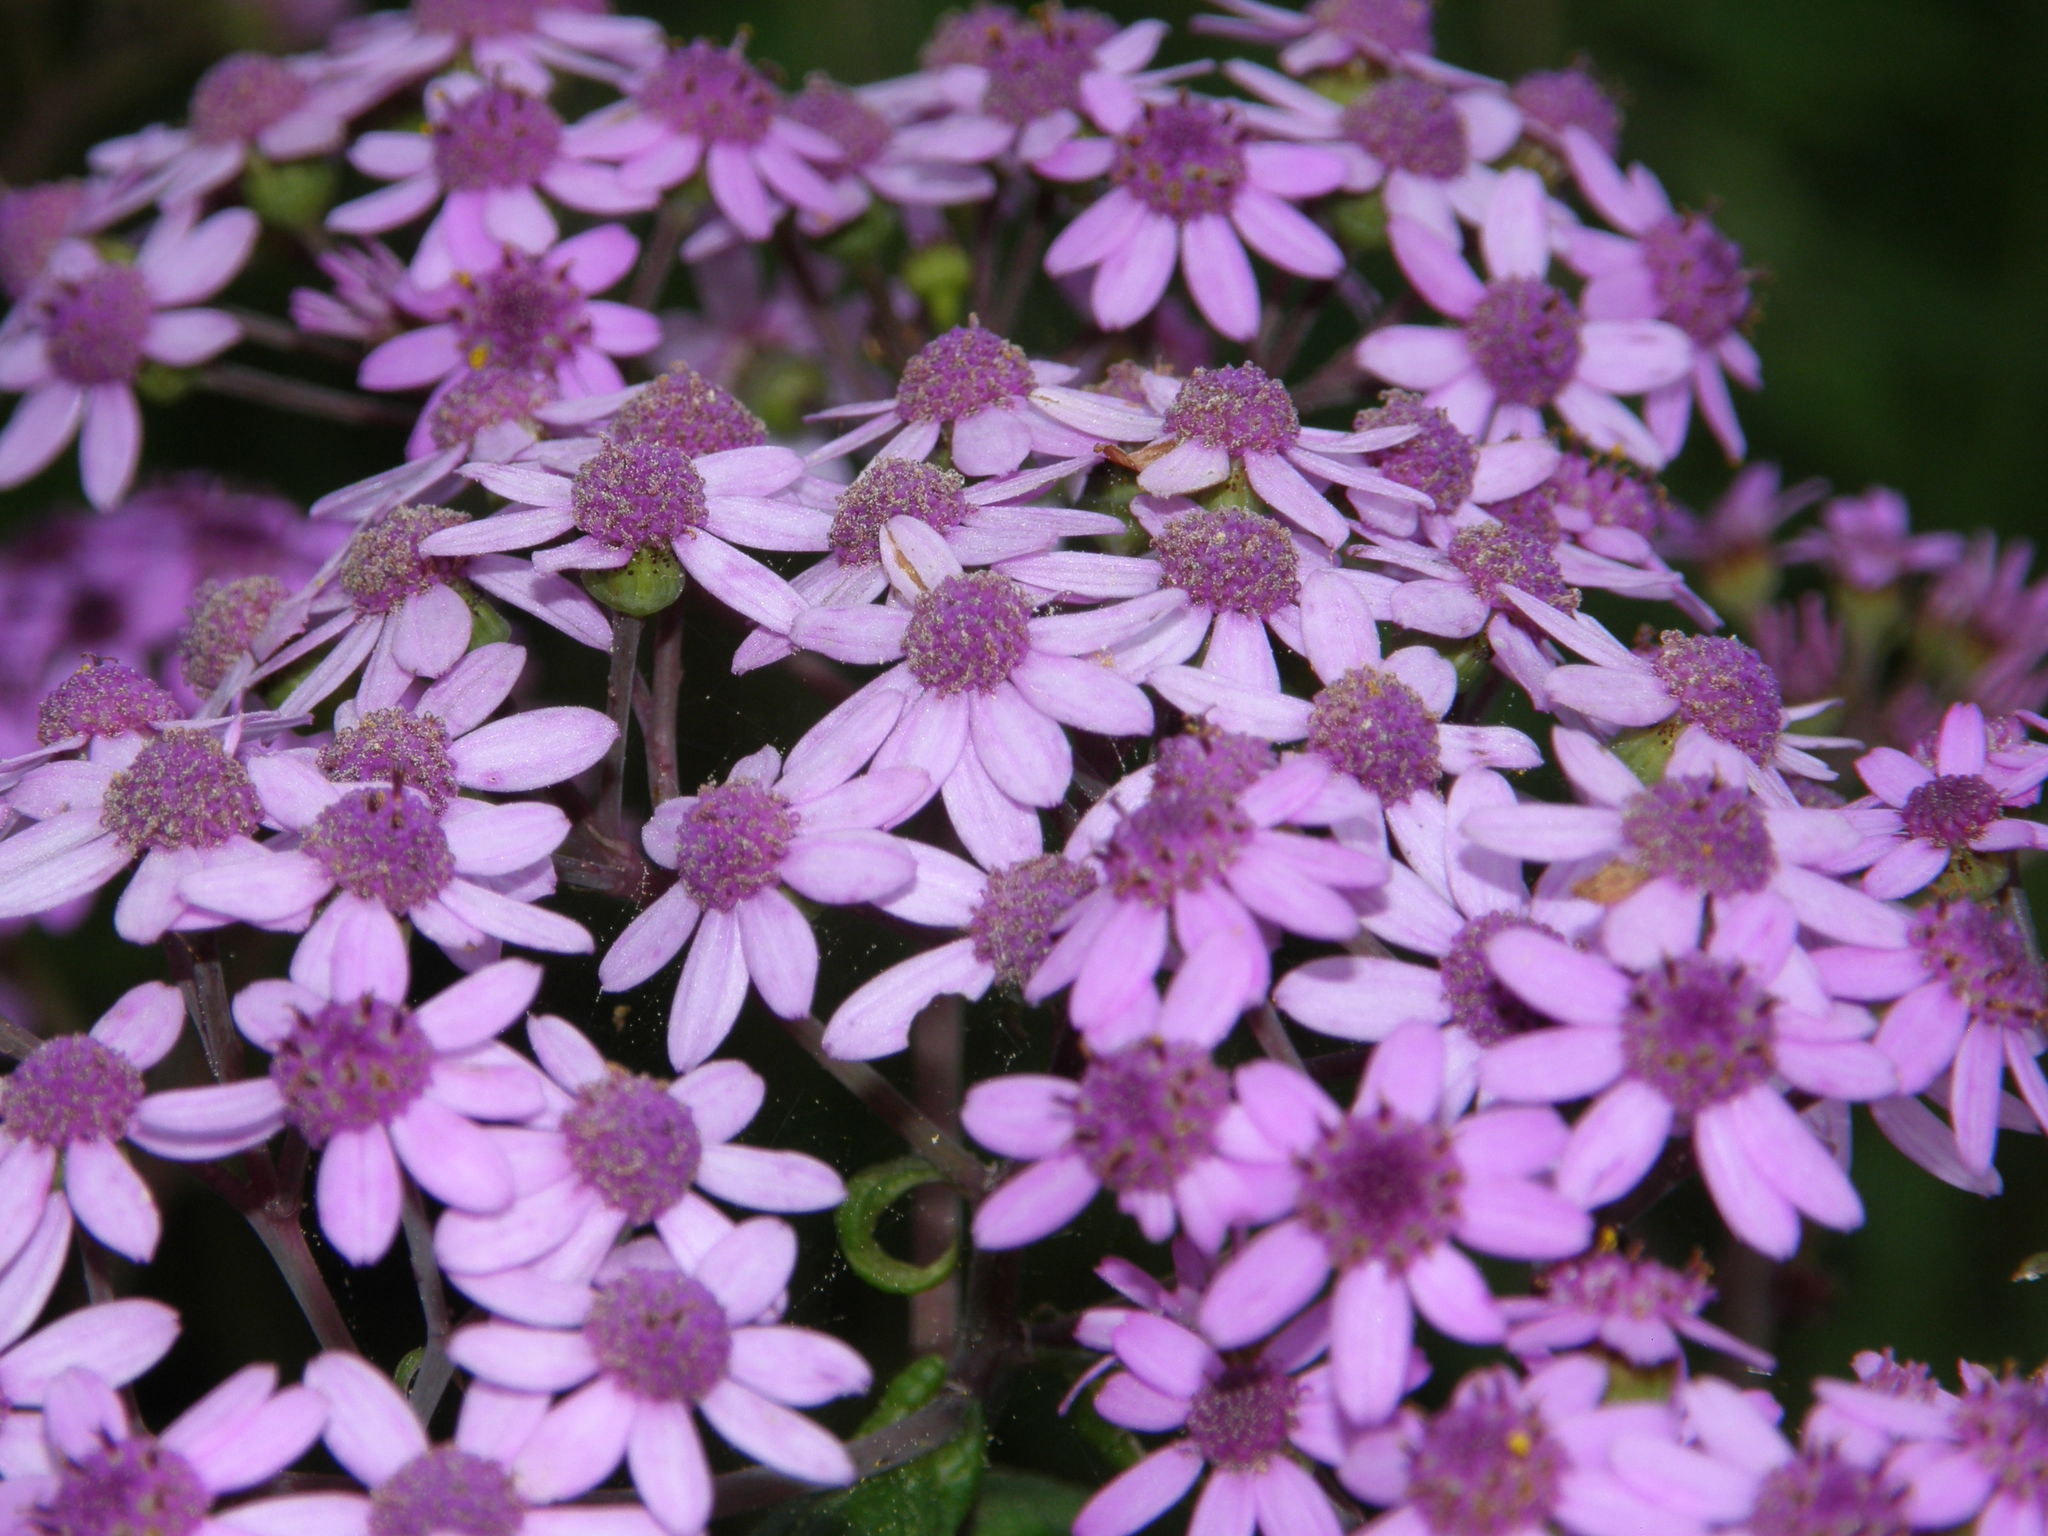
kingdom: Plantae
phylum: Tracheophyta
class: Magnoliopsida
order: Asterales
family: Asteraceae
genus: Pericallis
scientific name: Pericallis papyracea
